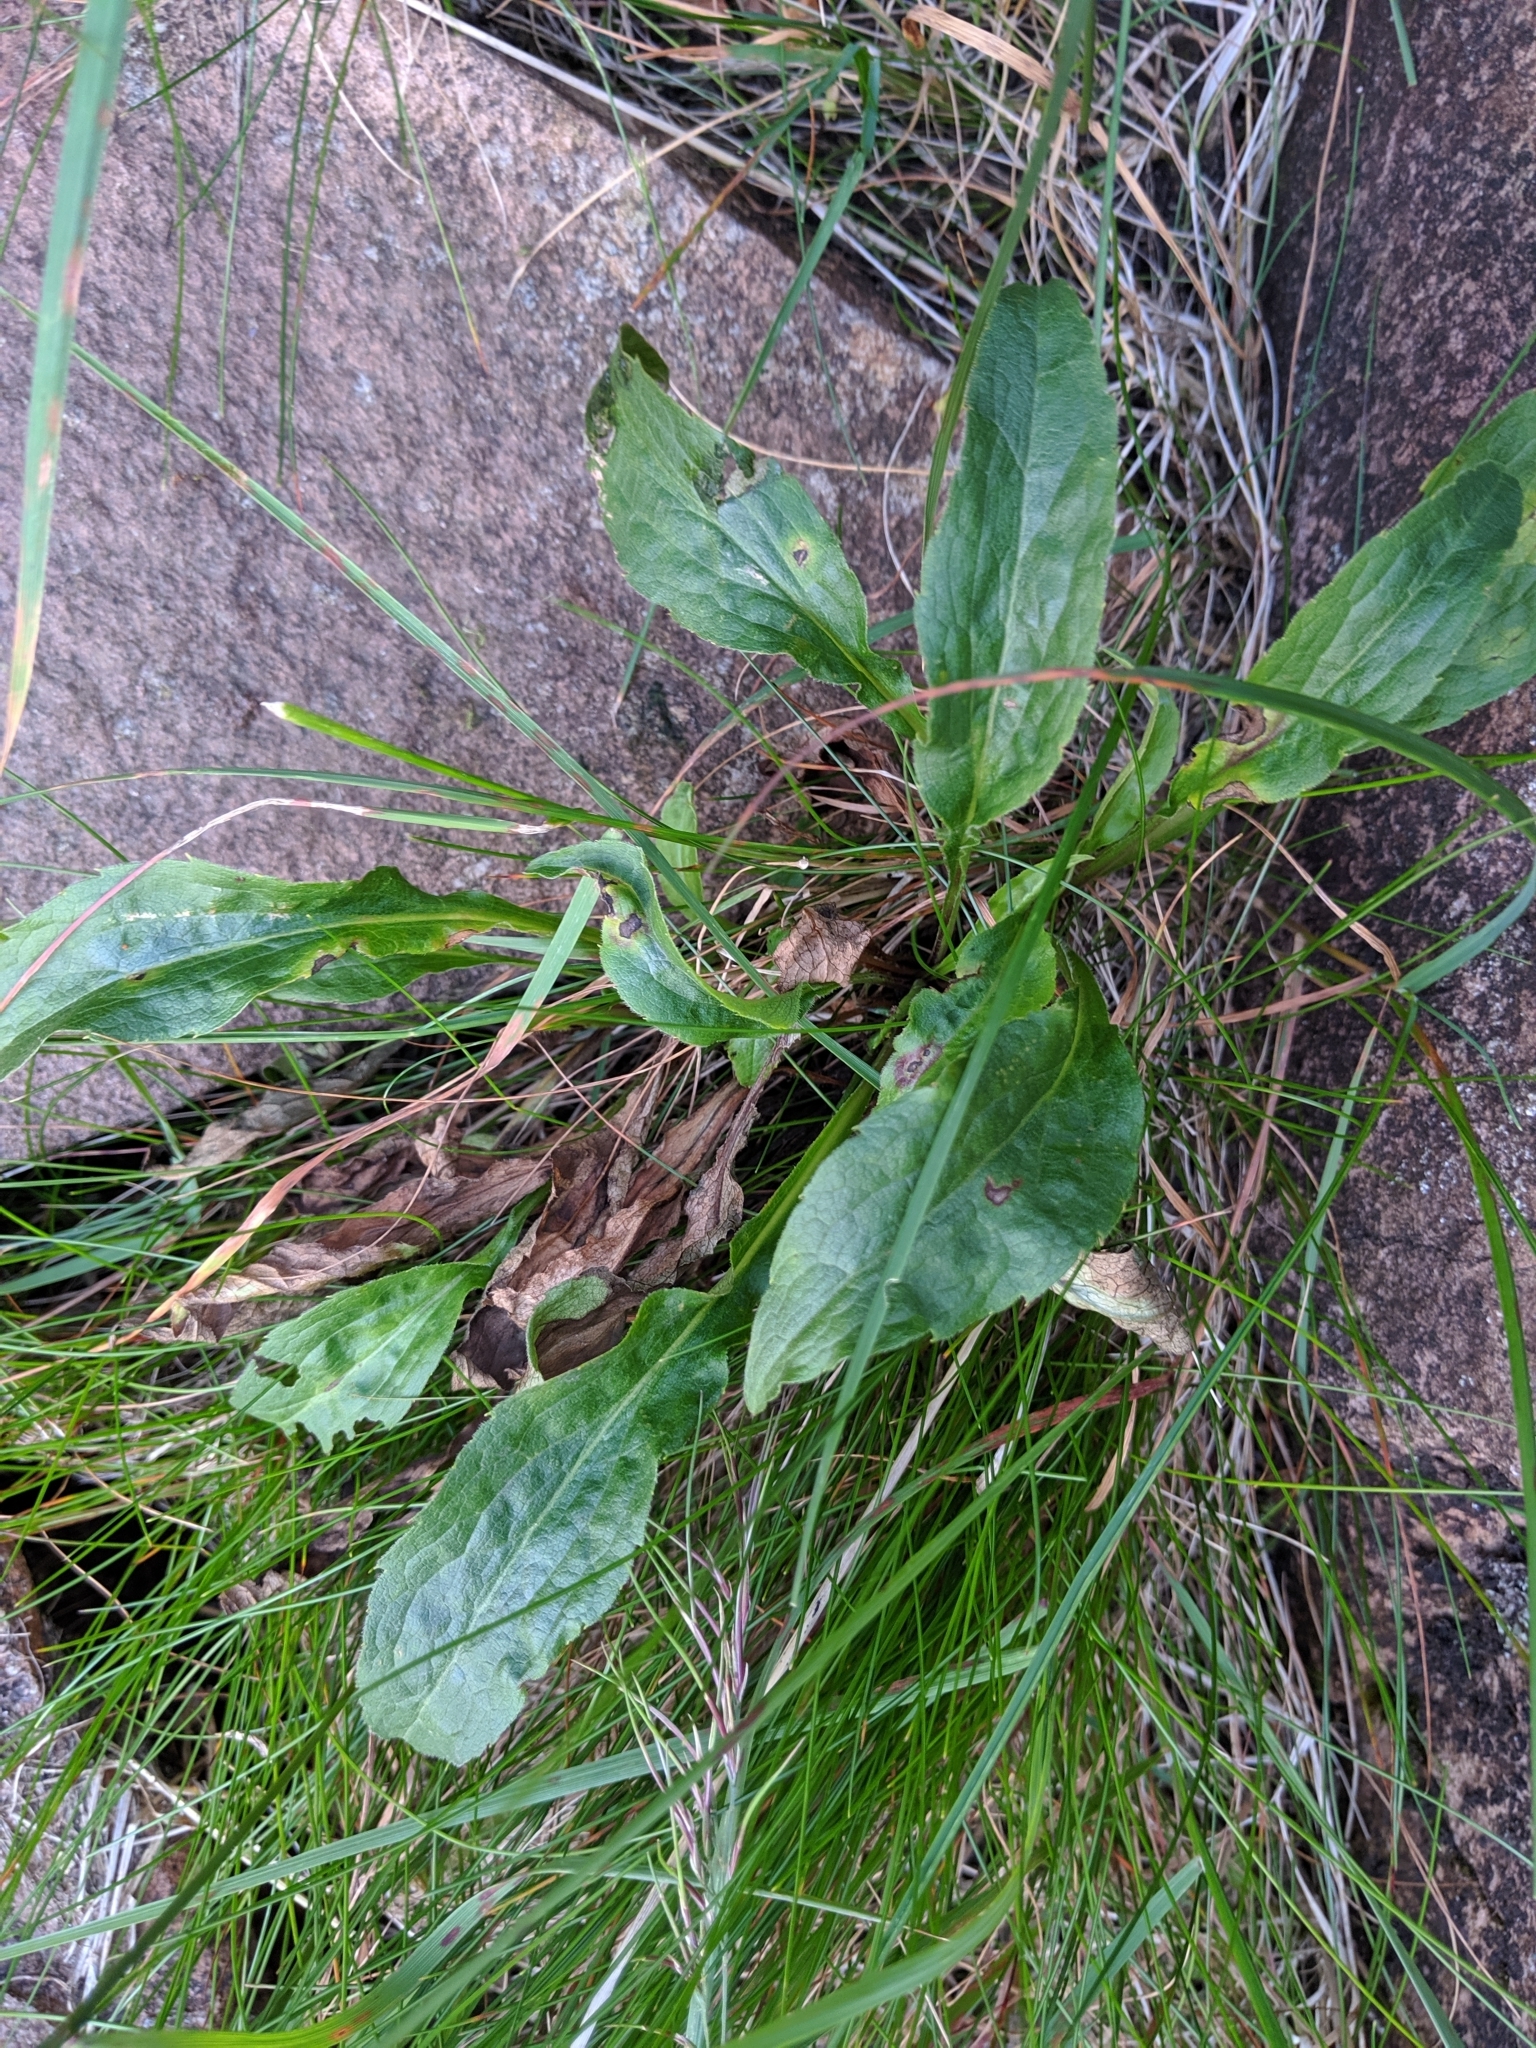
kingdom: Plantae
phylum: Tracheophyta
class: Magnoliopsida
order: Asterales
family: Asteraceae
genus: Solidago
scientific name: Solidago virgaurea
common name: Goldenrod
